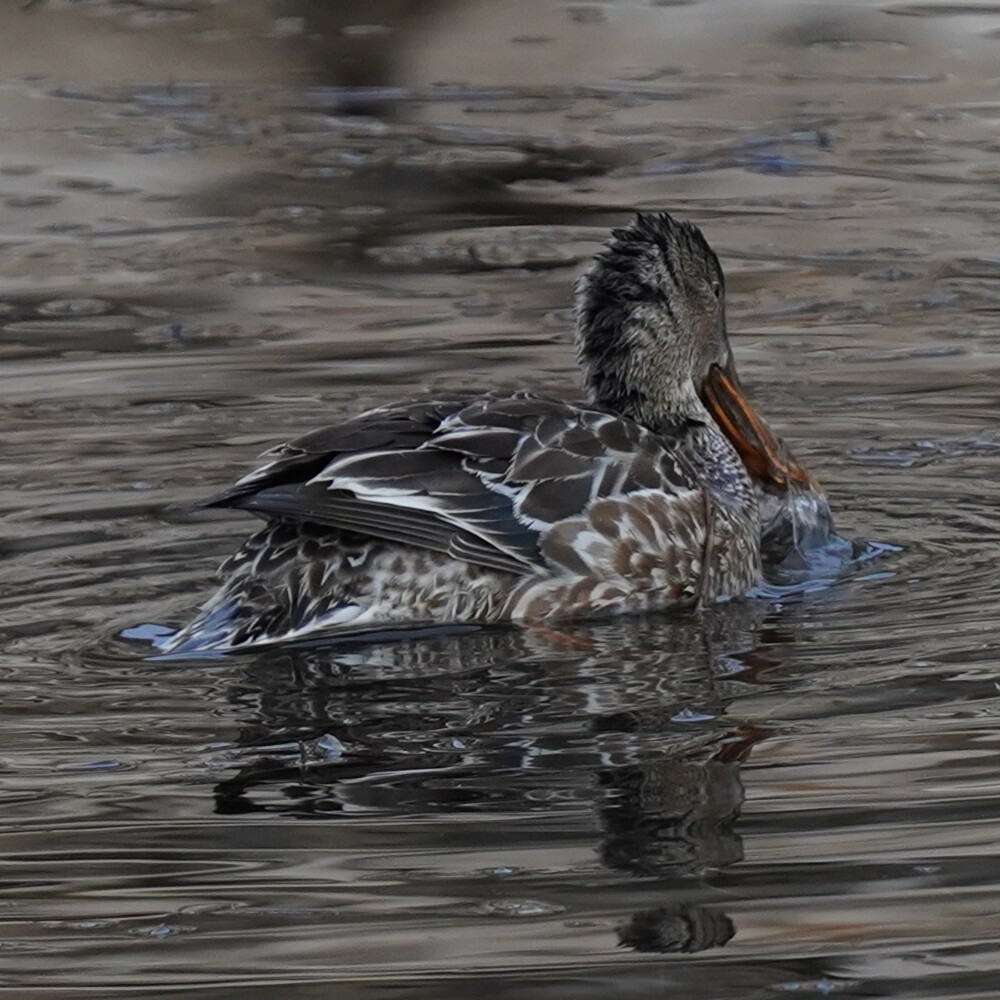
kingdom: Animalia
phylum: Chordata
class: Aves
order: Anseriformes
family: Anatidae
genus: Spatula
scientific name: Spatula clypeata
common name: Northern shoveler
